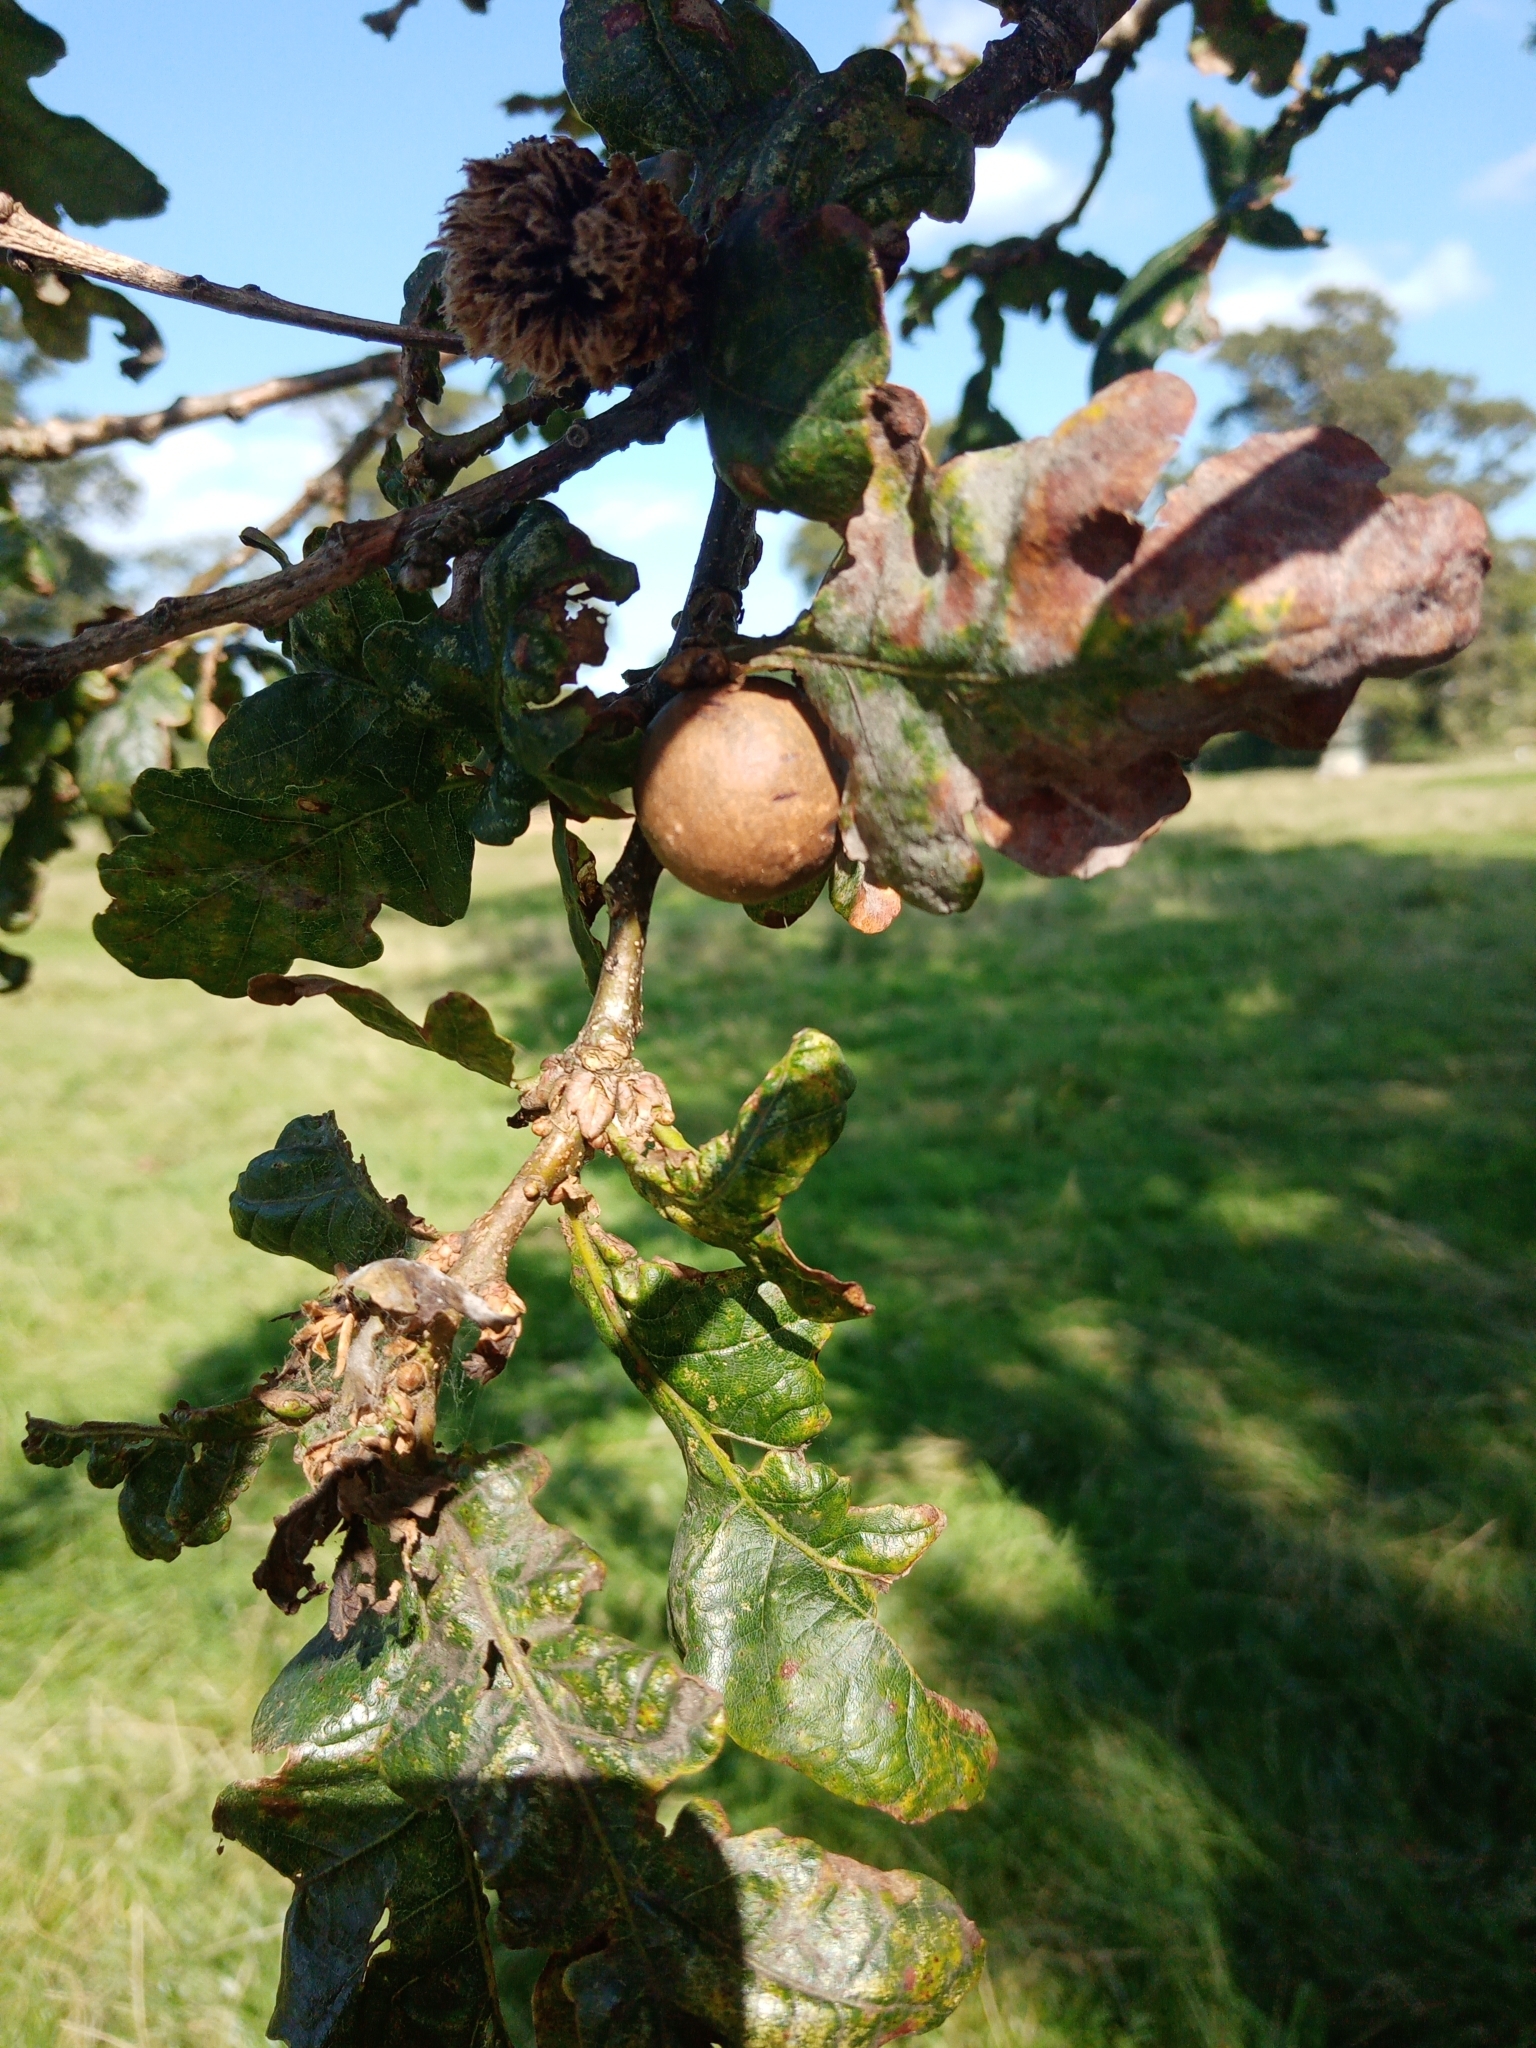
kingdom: Animalia
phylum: Arthropoda
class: Insecta
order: Hymenoptera
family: Cynipidae
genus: Andricus
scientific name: Andricus kollari
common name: Marble gall
